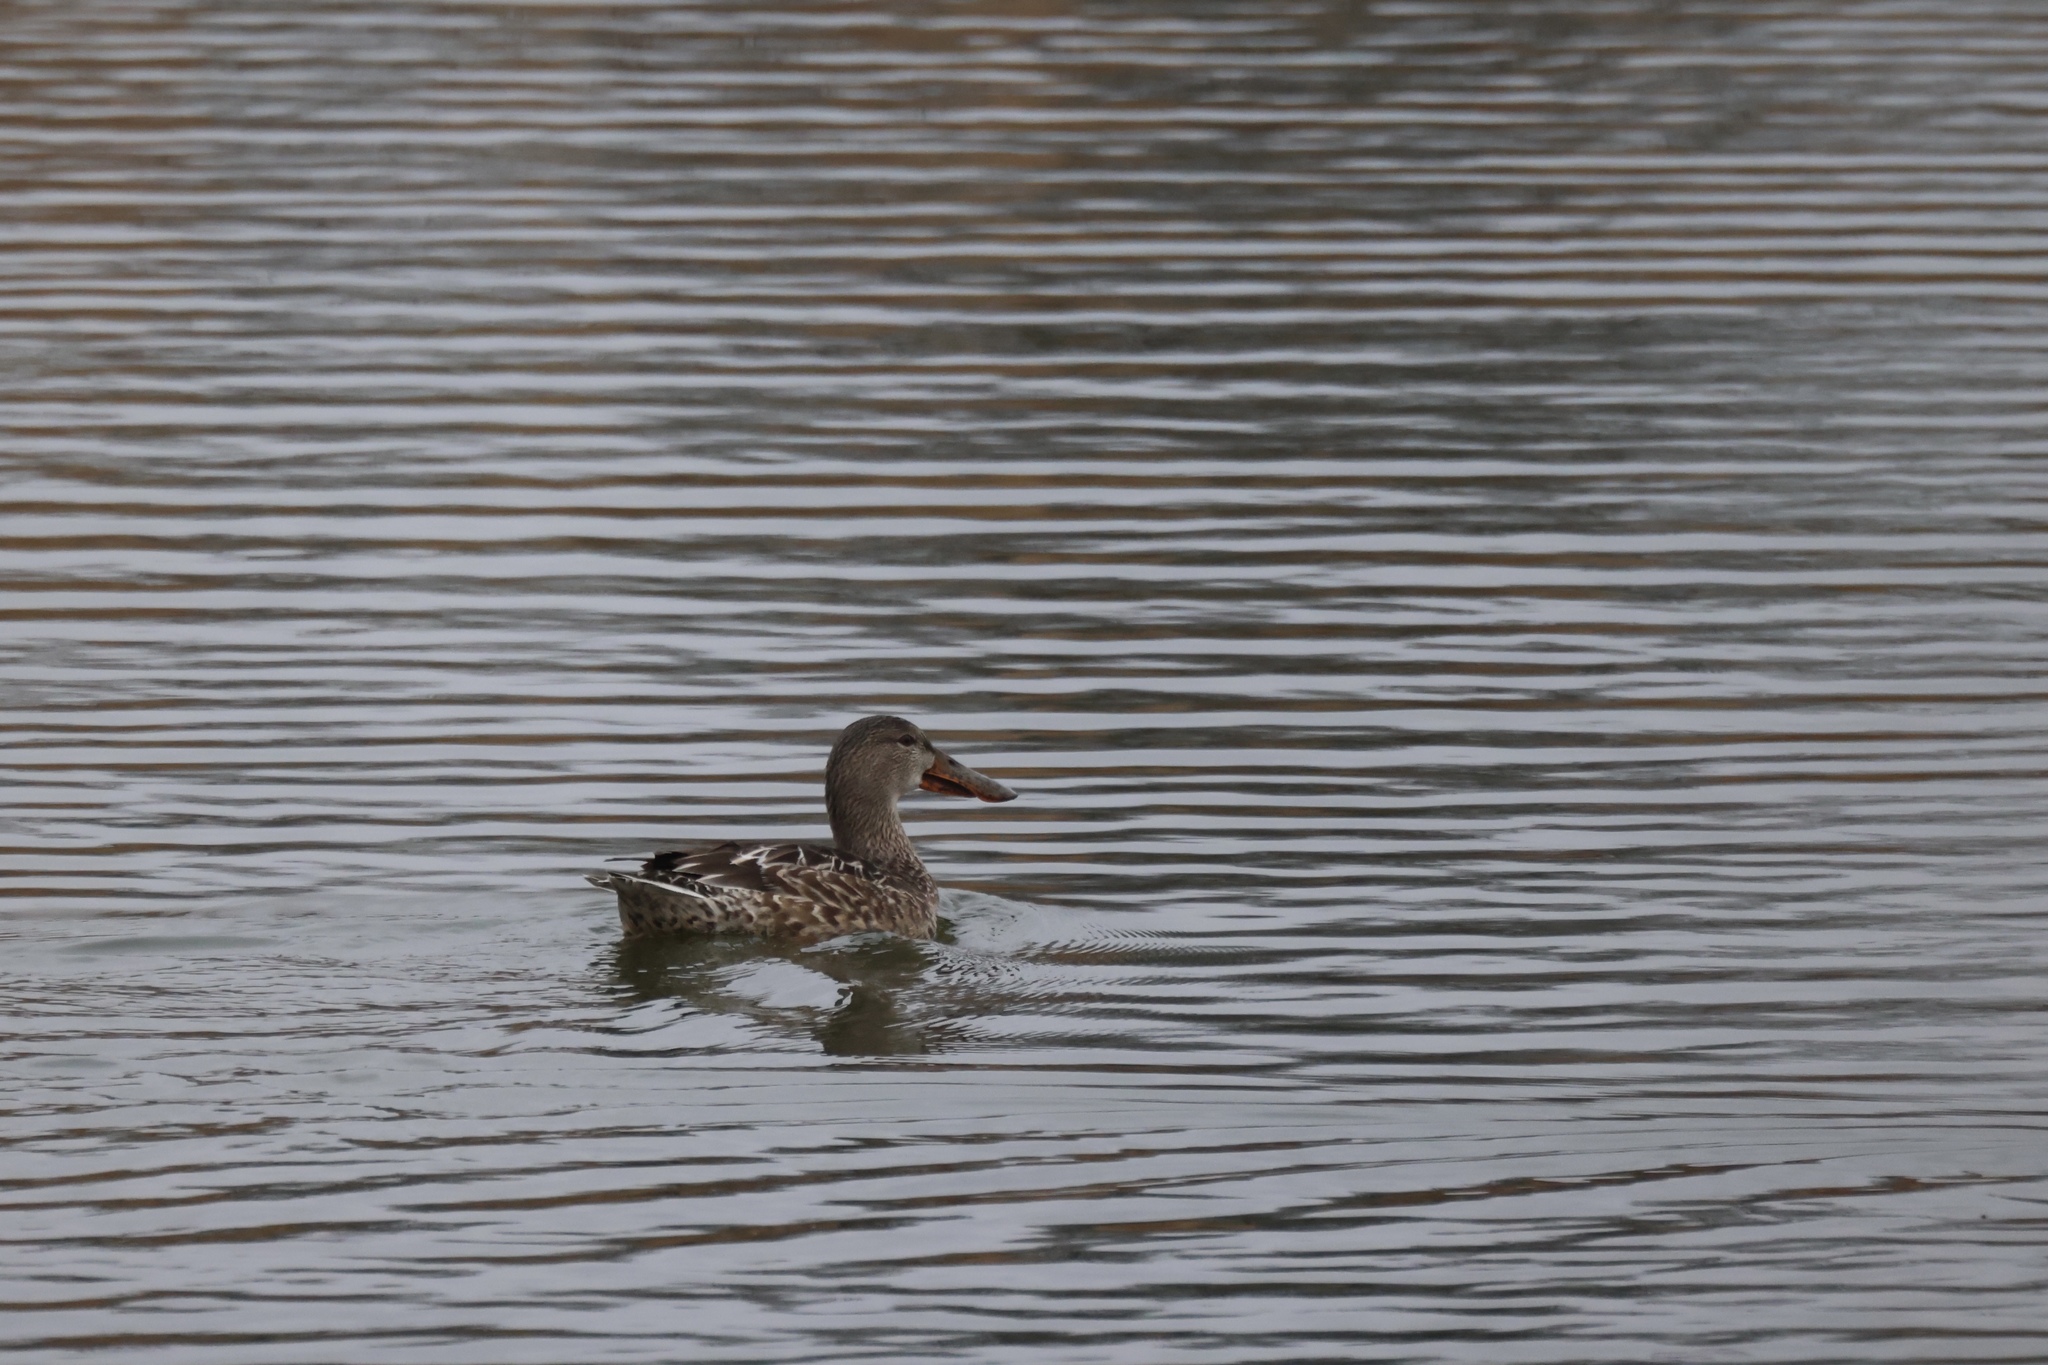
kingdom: Animalia
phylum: Chordata
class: Aves
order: Anseriformes
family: Anatidae
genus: Spatula
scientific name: Spatula clypeata
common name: Northern shoveler
